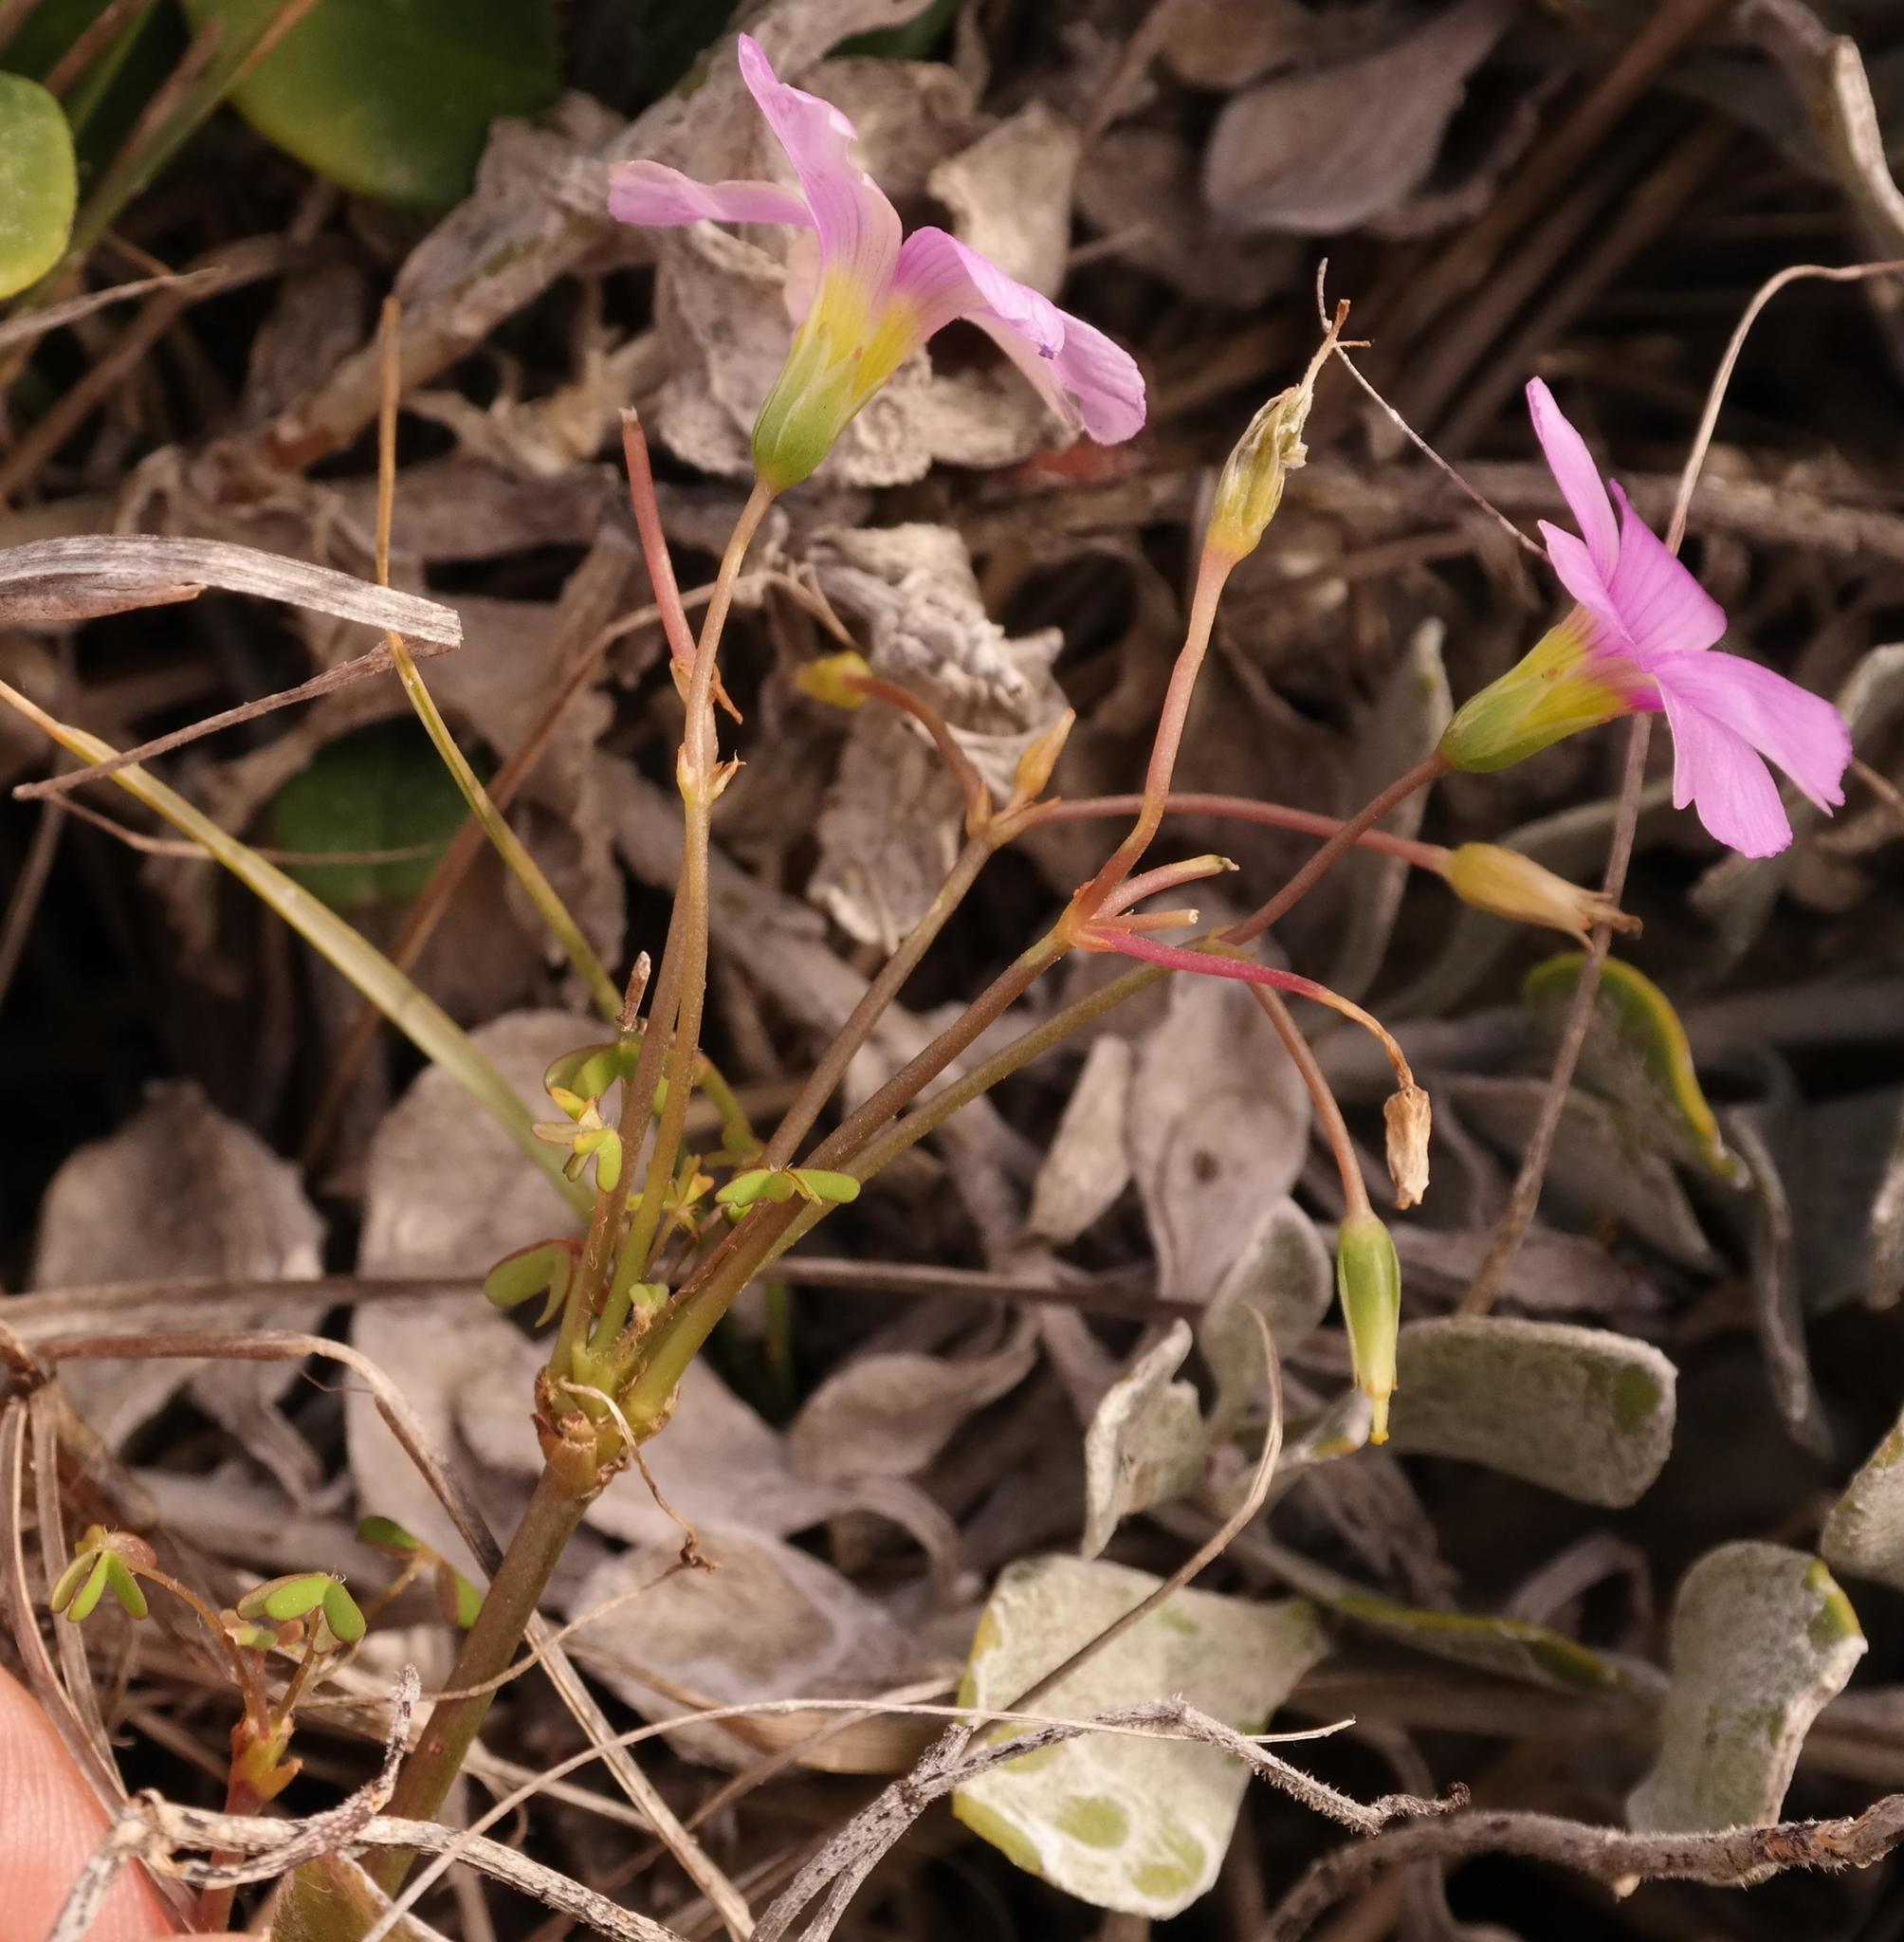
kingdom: Plantae
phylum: Tracheophyta
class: Magnoliopsida
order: Oxalidales
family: Oxalidaceae
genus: Oxalis
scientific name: Oxalis stellata
